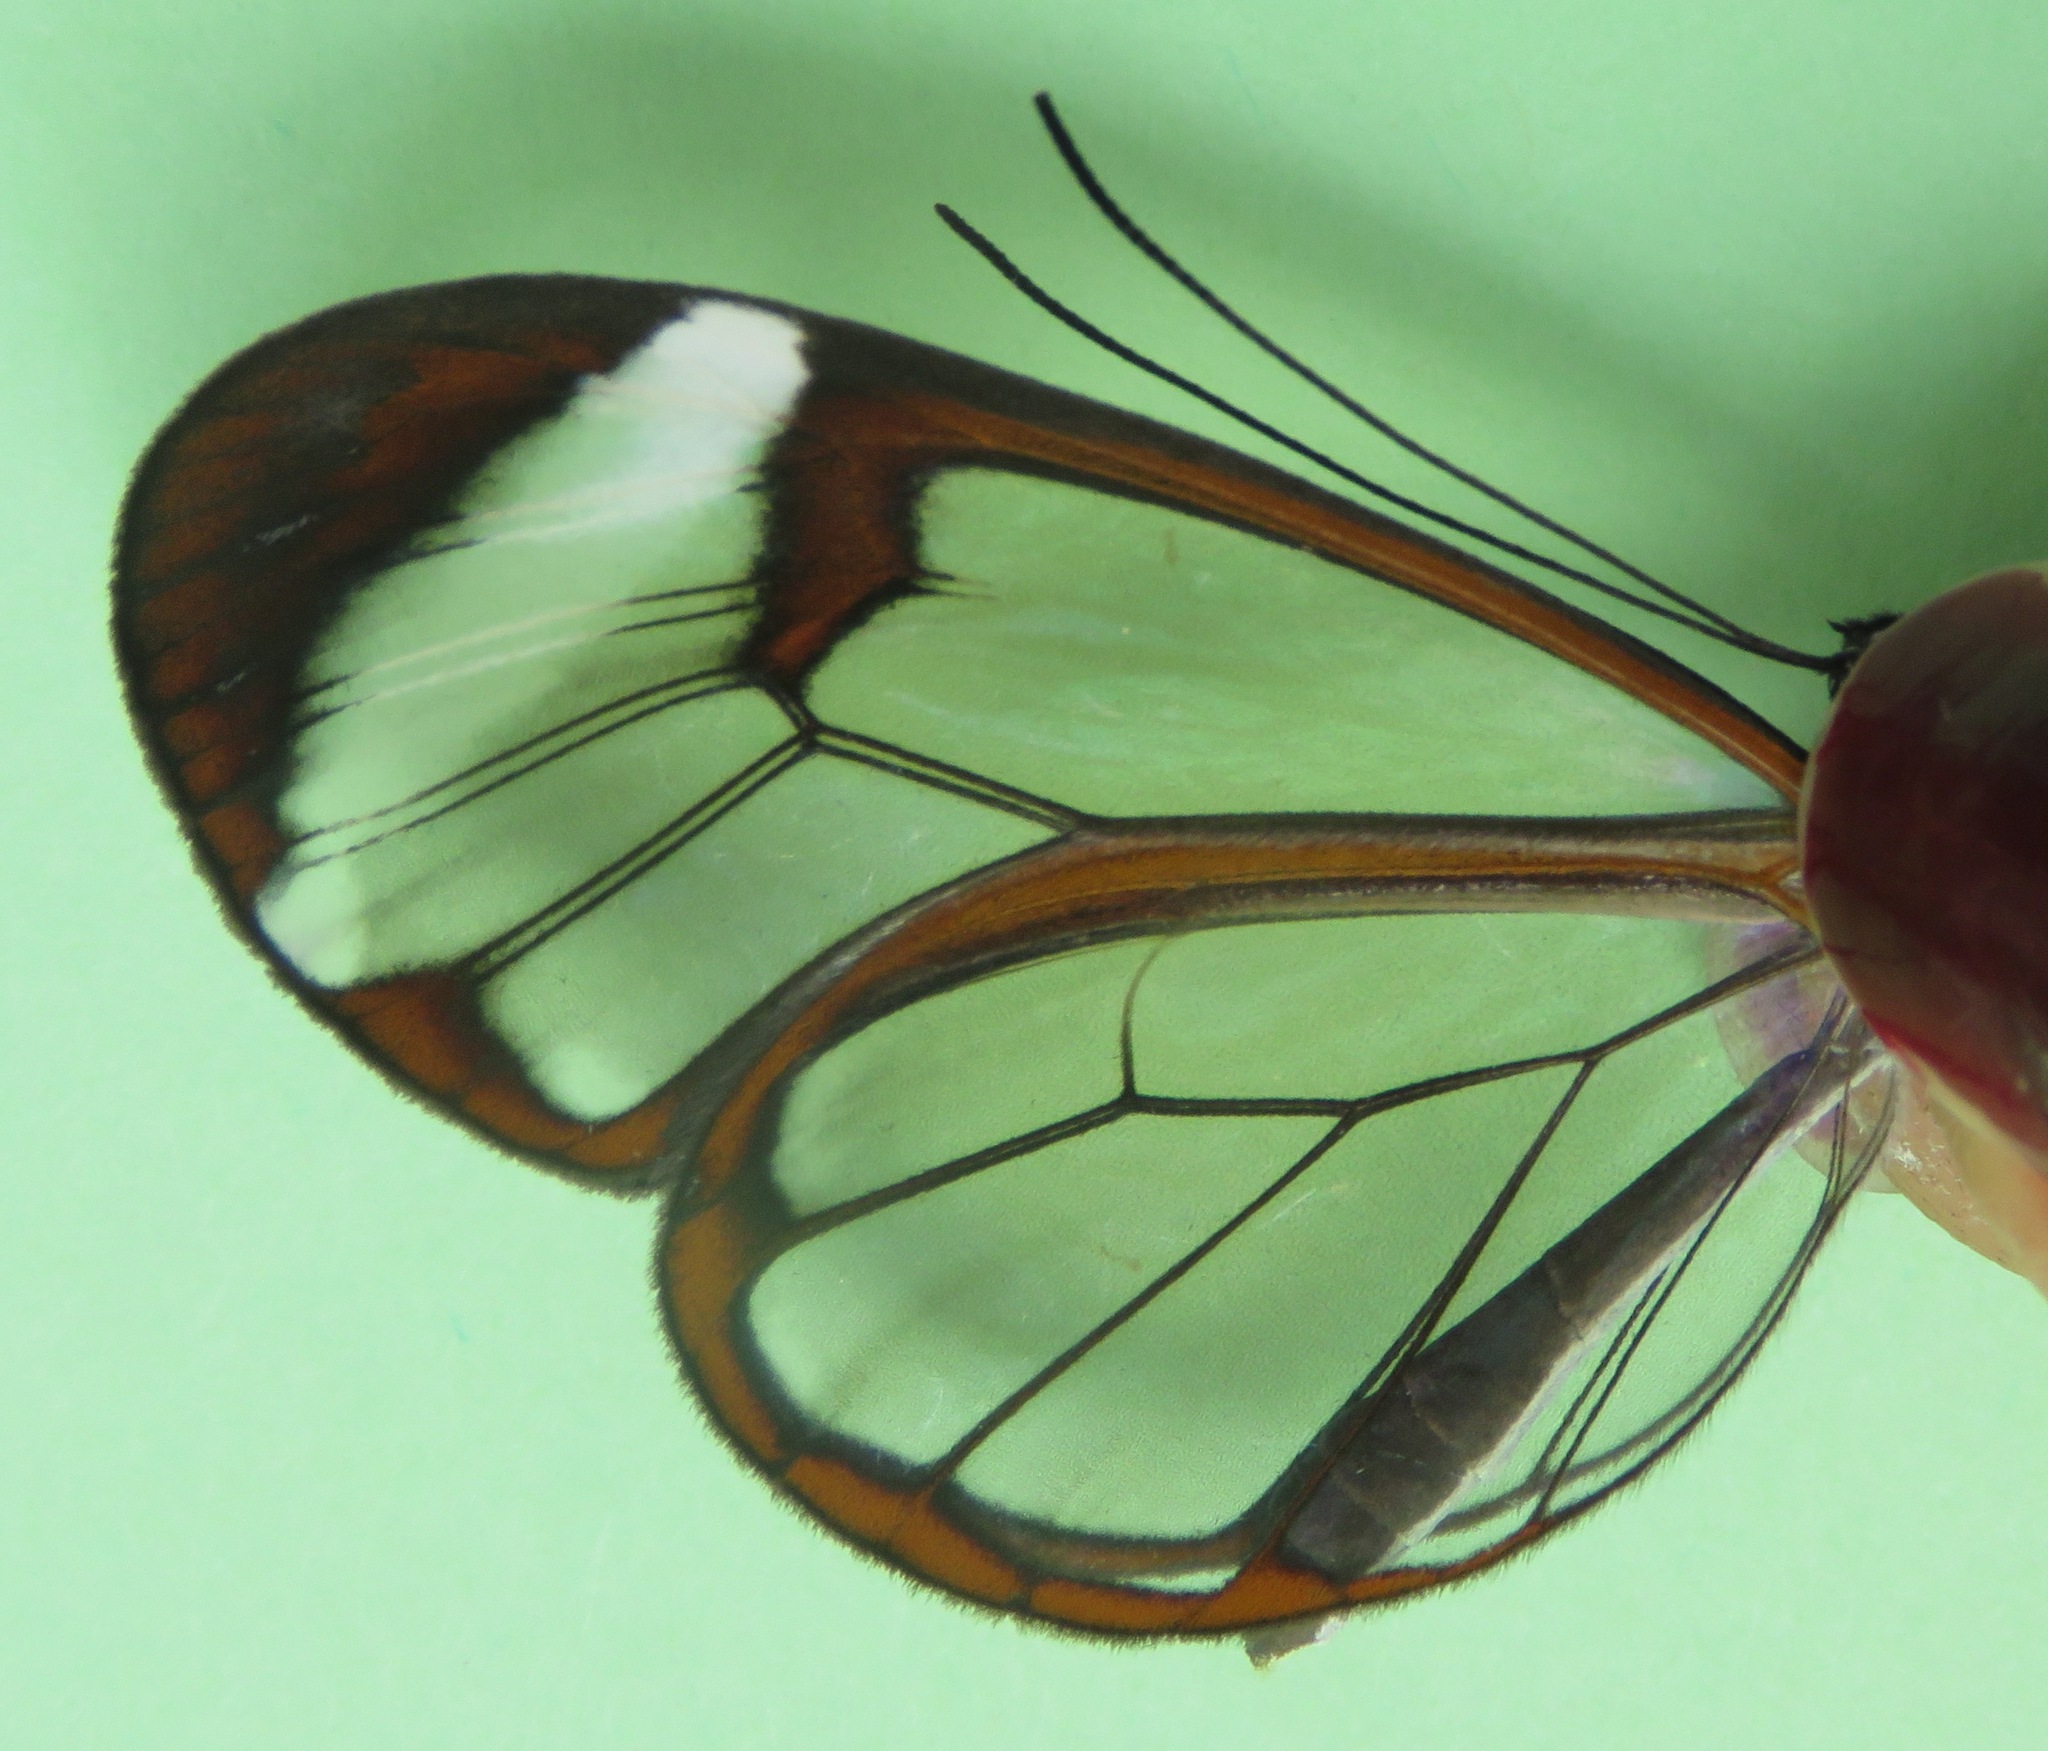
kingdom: Animalia
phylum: Arthropoda
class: Insecta
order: Lepidoptera
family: Nymphalidae
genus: Greta
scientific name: Greta morgane
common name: Thick-tipped greta
